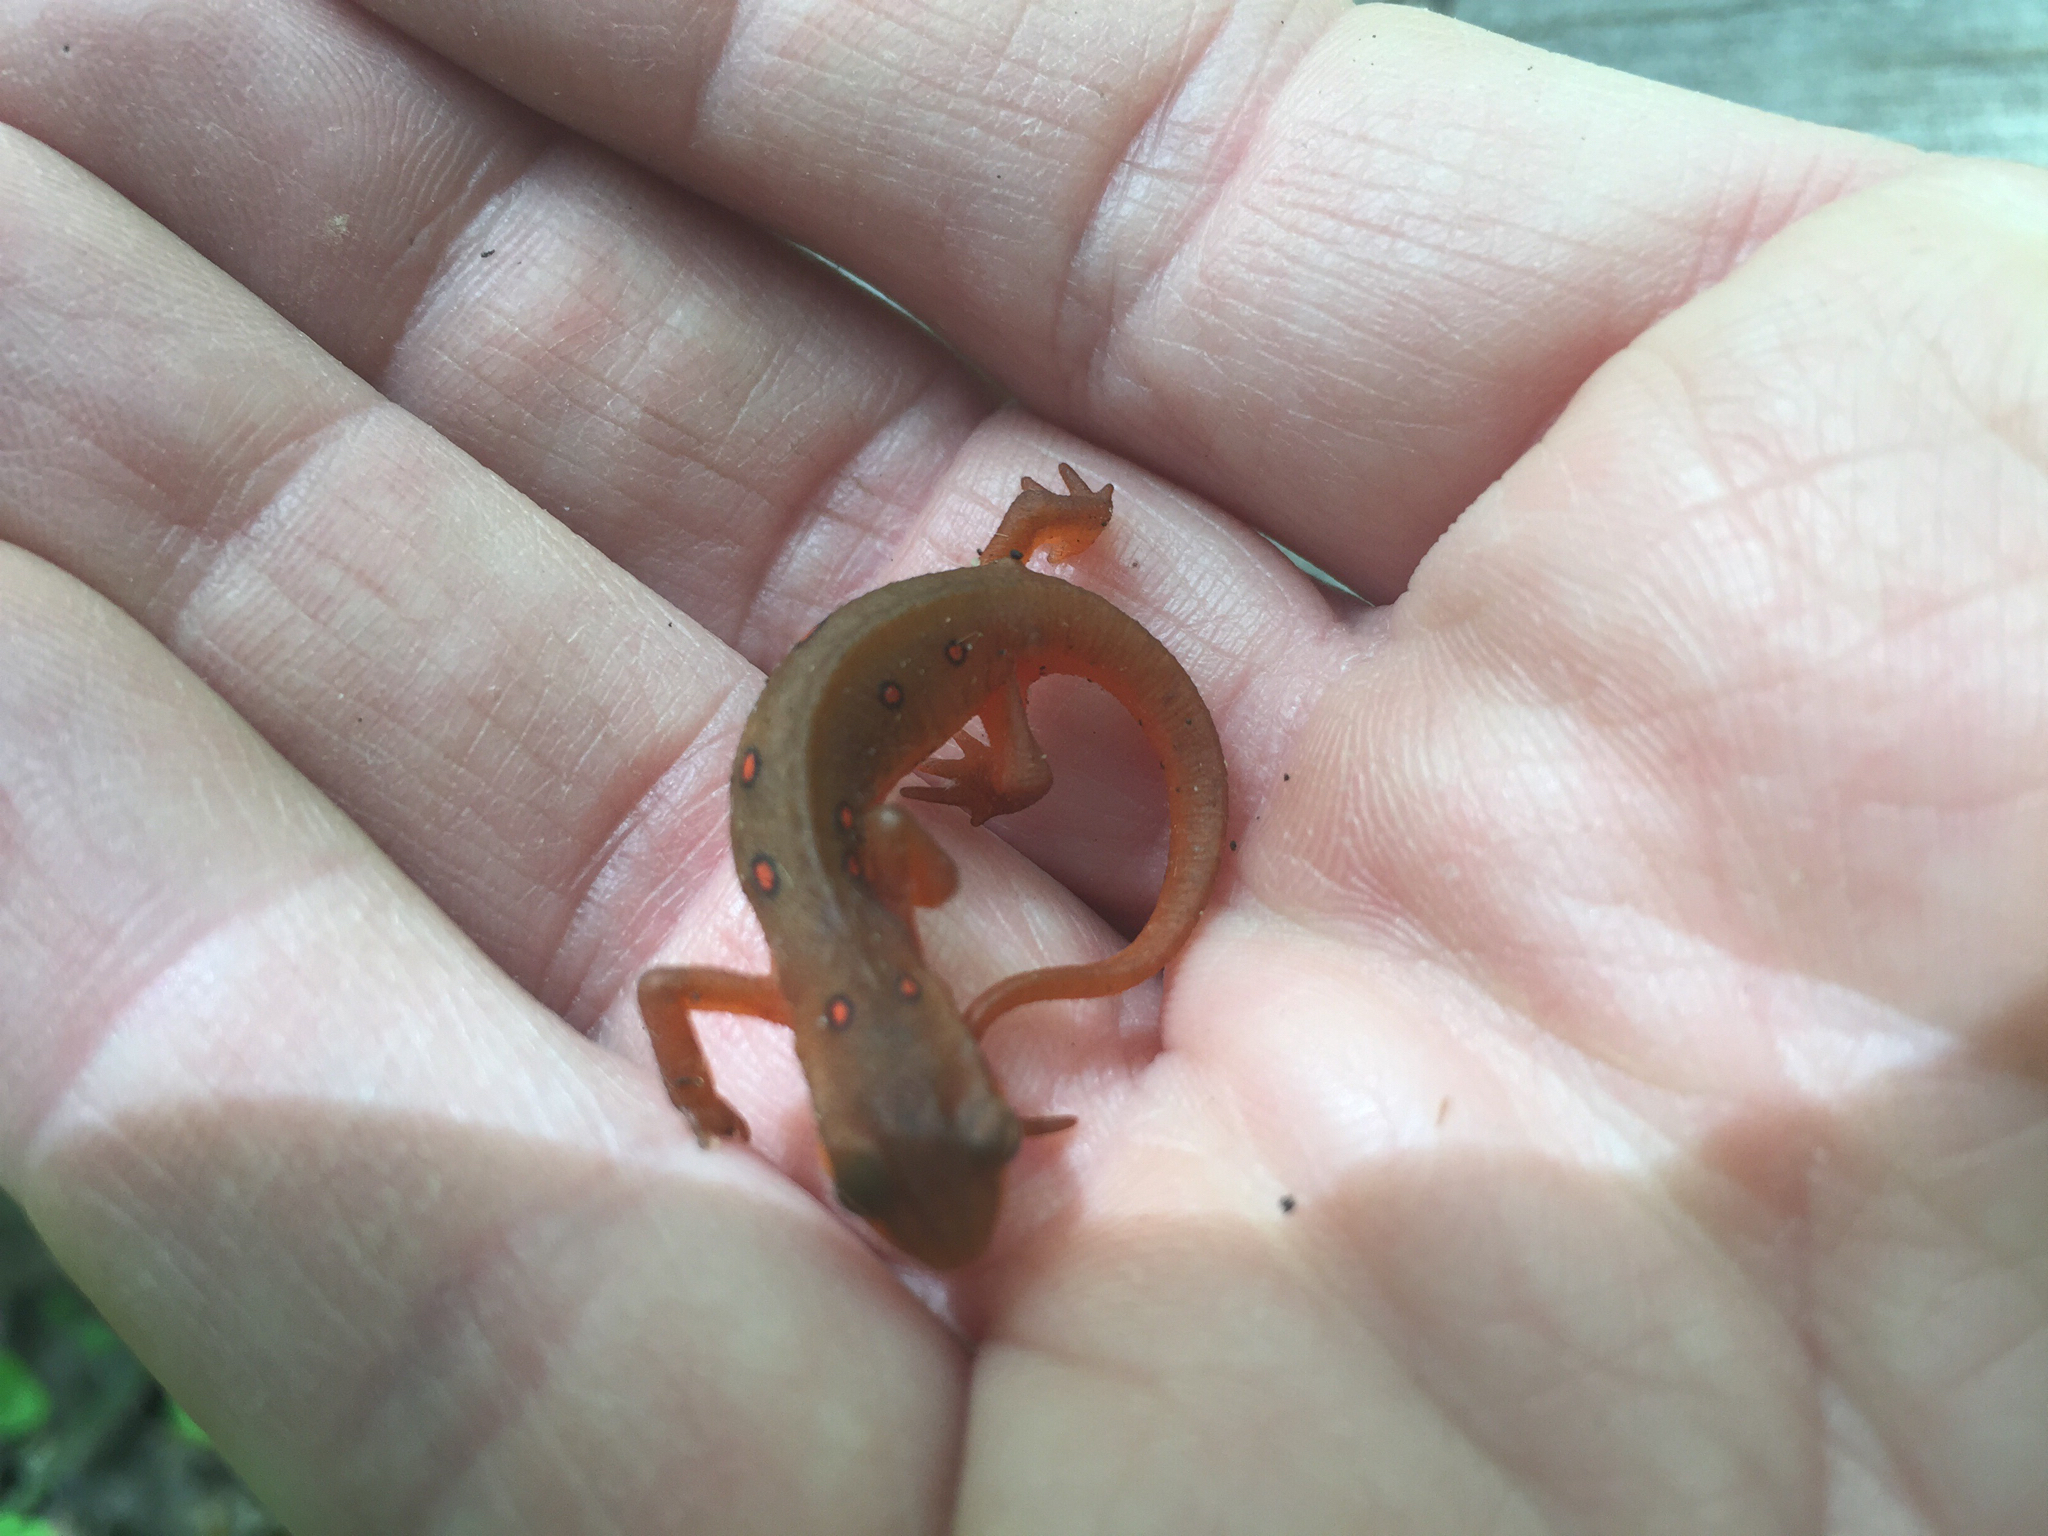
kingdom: Animalia
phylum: Chordata
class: Amphibia
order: Caudata
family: Salamandridae
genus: Notophthalmus
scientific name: Notophthalmus viridescens
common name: Eastern newt
